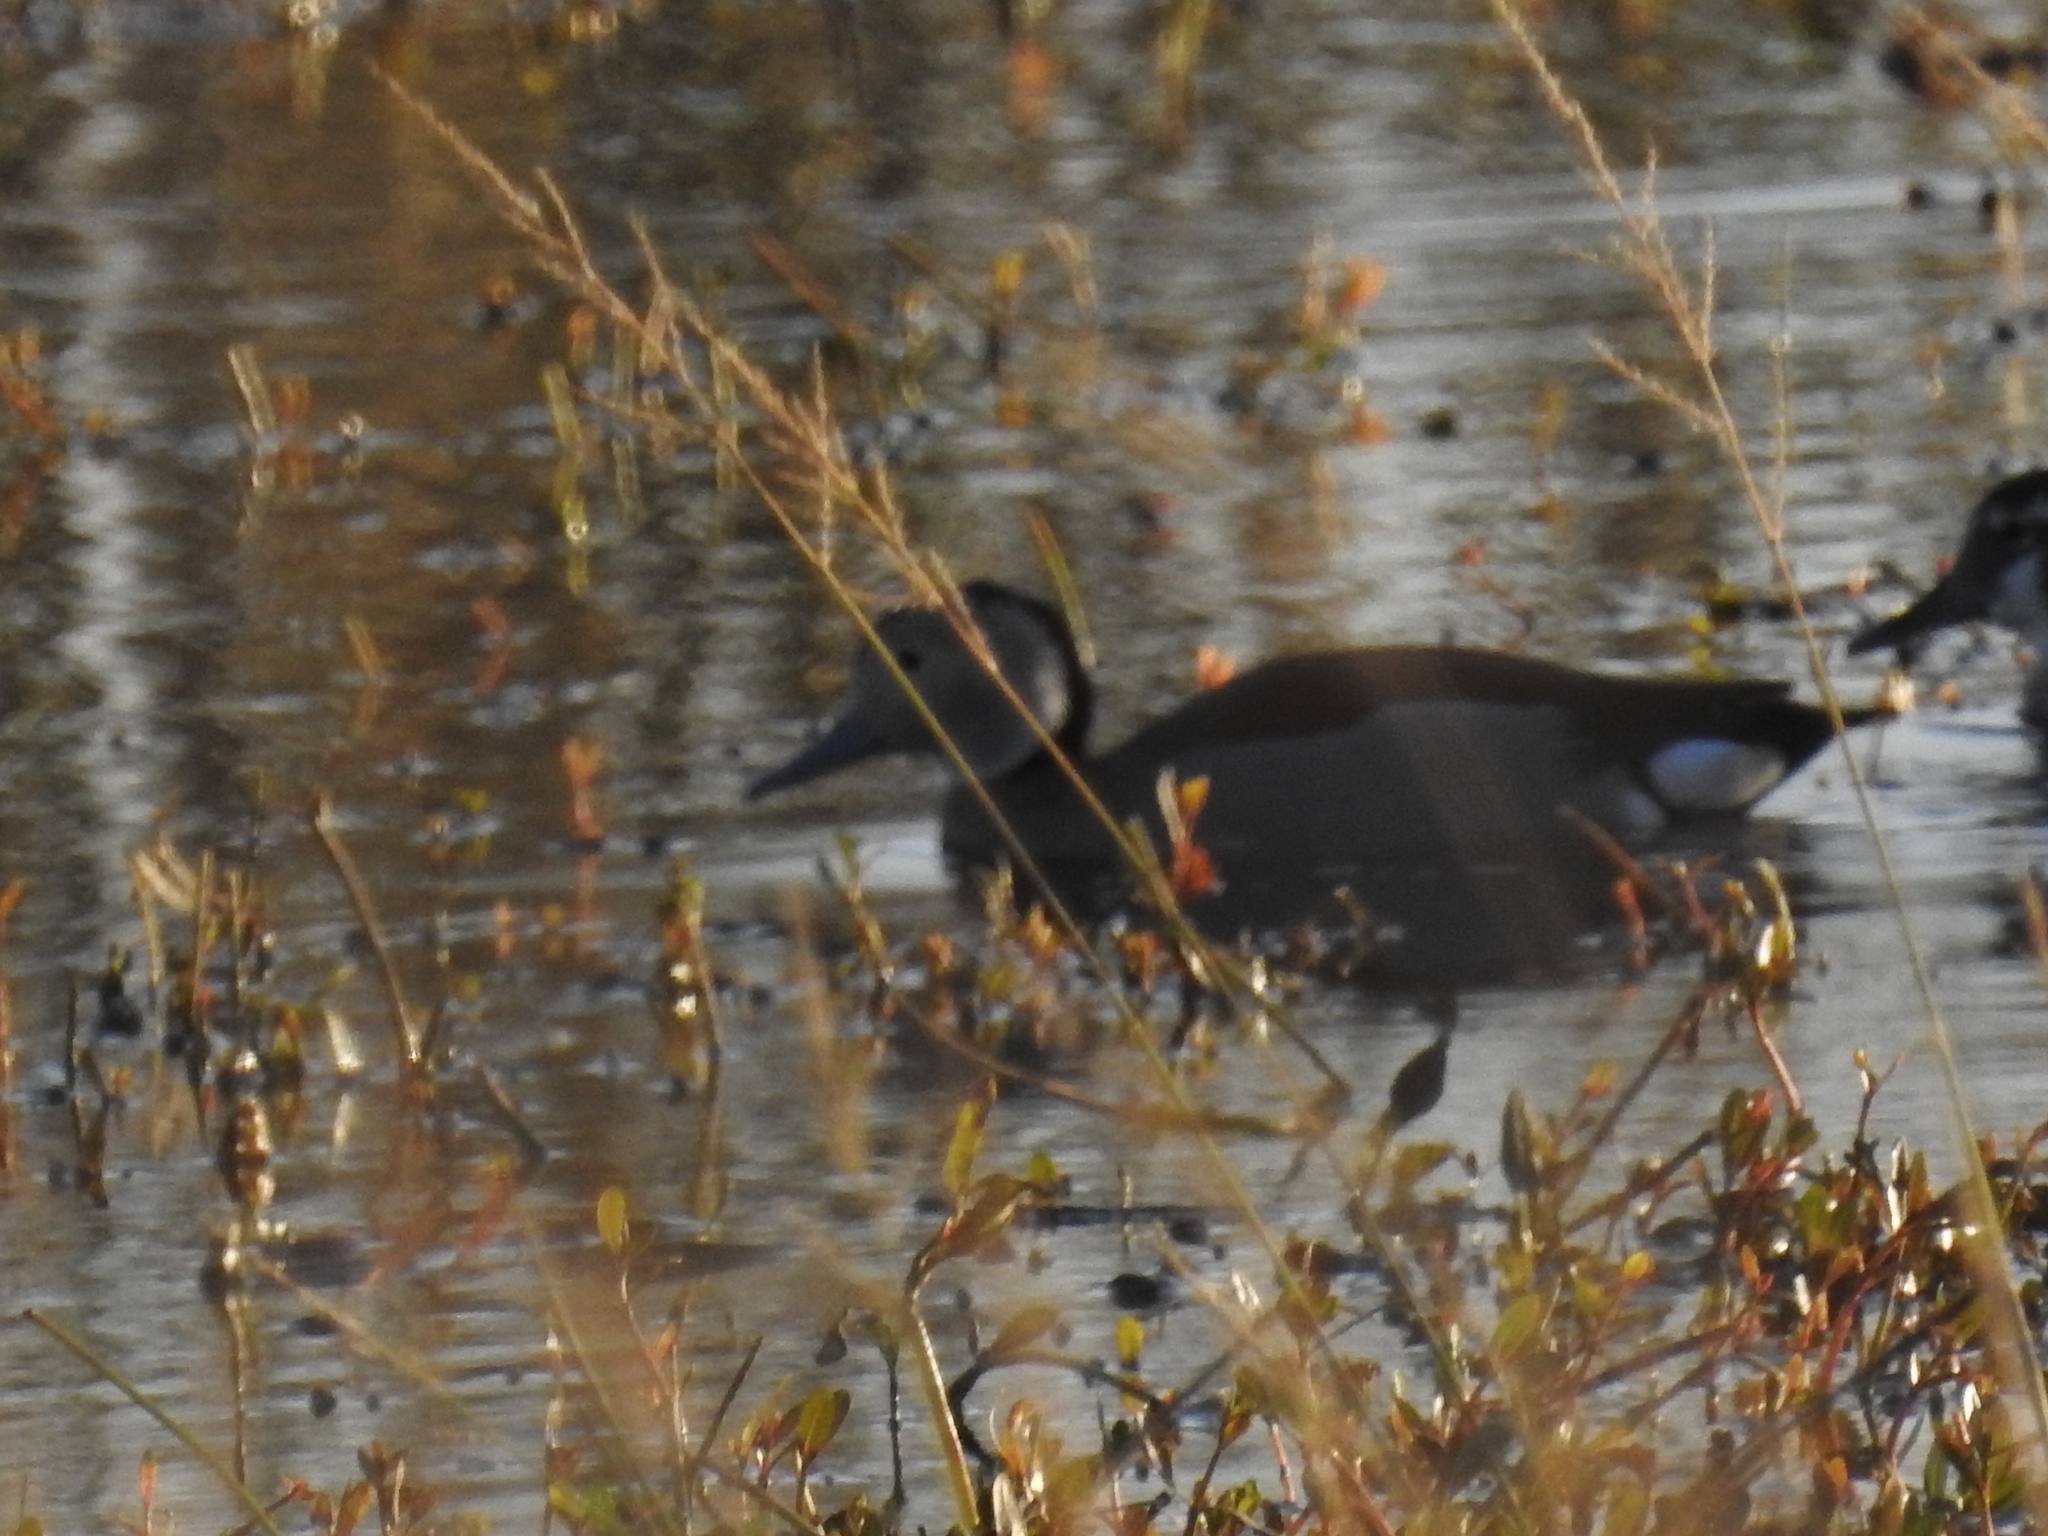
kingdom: Animalia
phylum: Chordata
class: Aves
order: Anseriformes
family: Anatidae
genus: Callonetta
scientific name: Callonetta leucophrys
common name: Ringed teal
